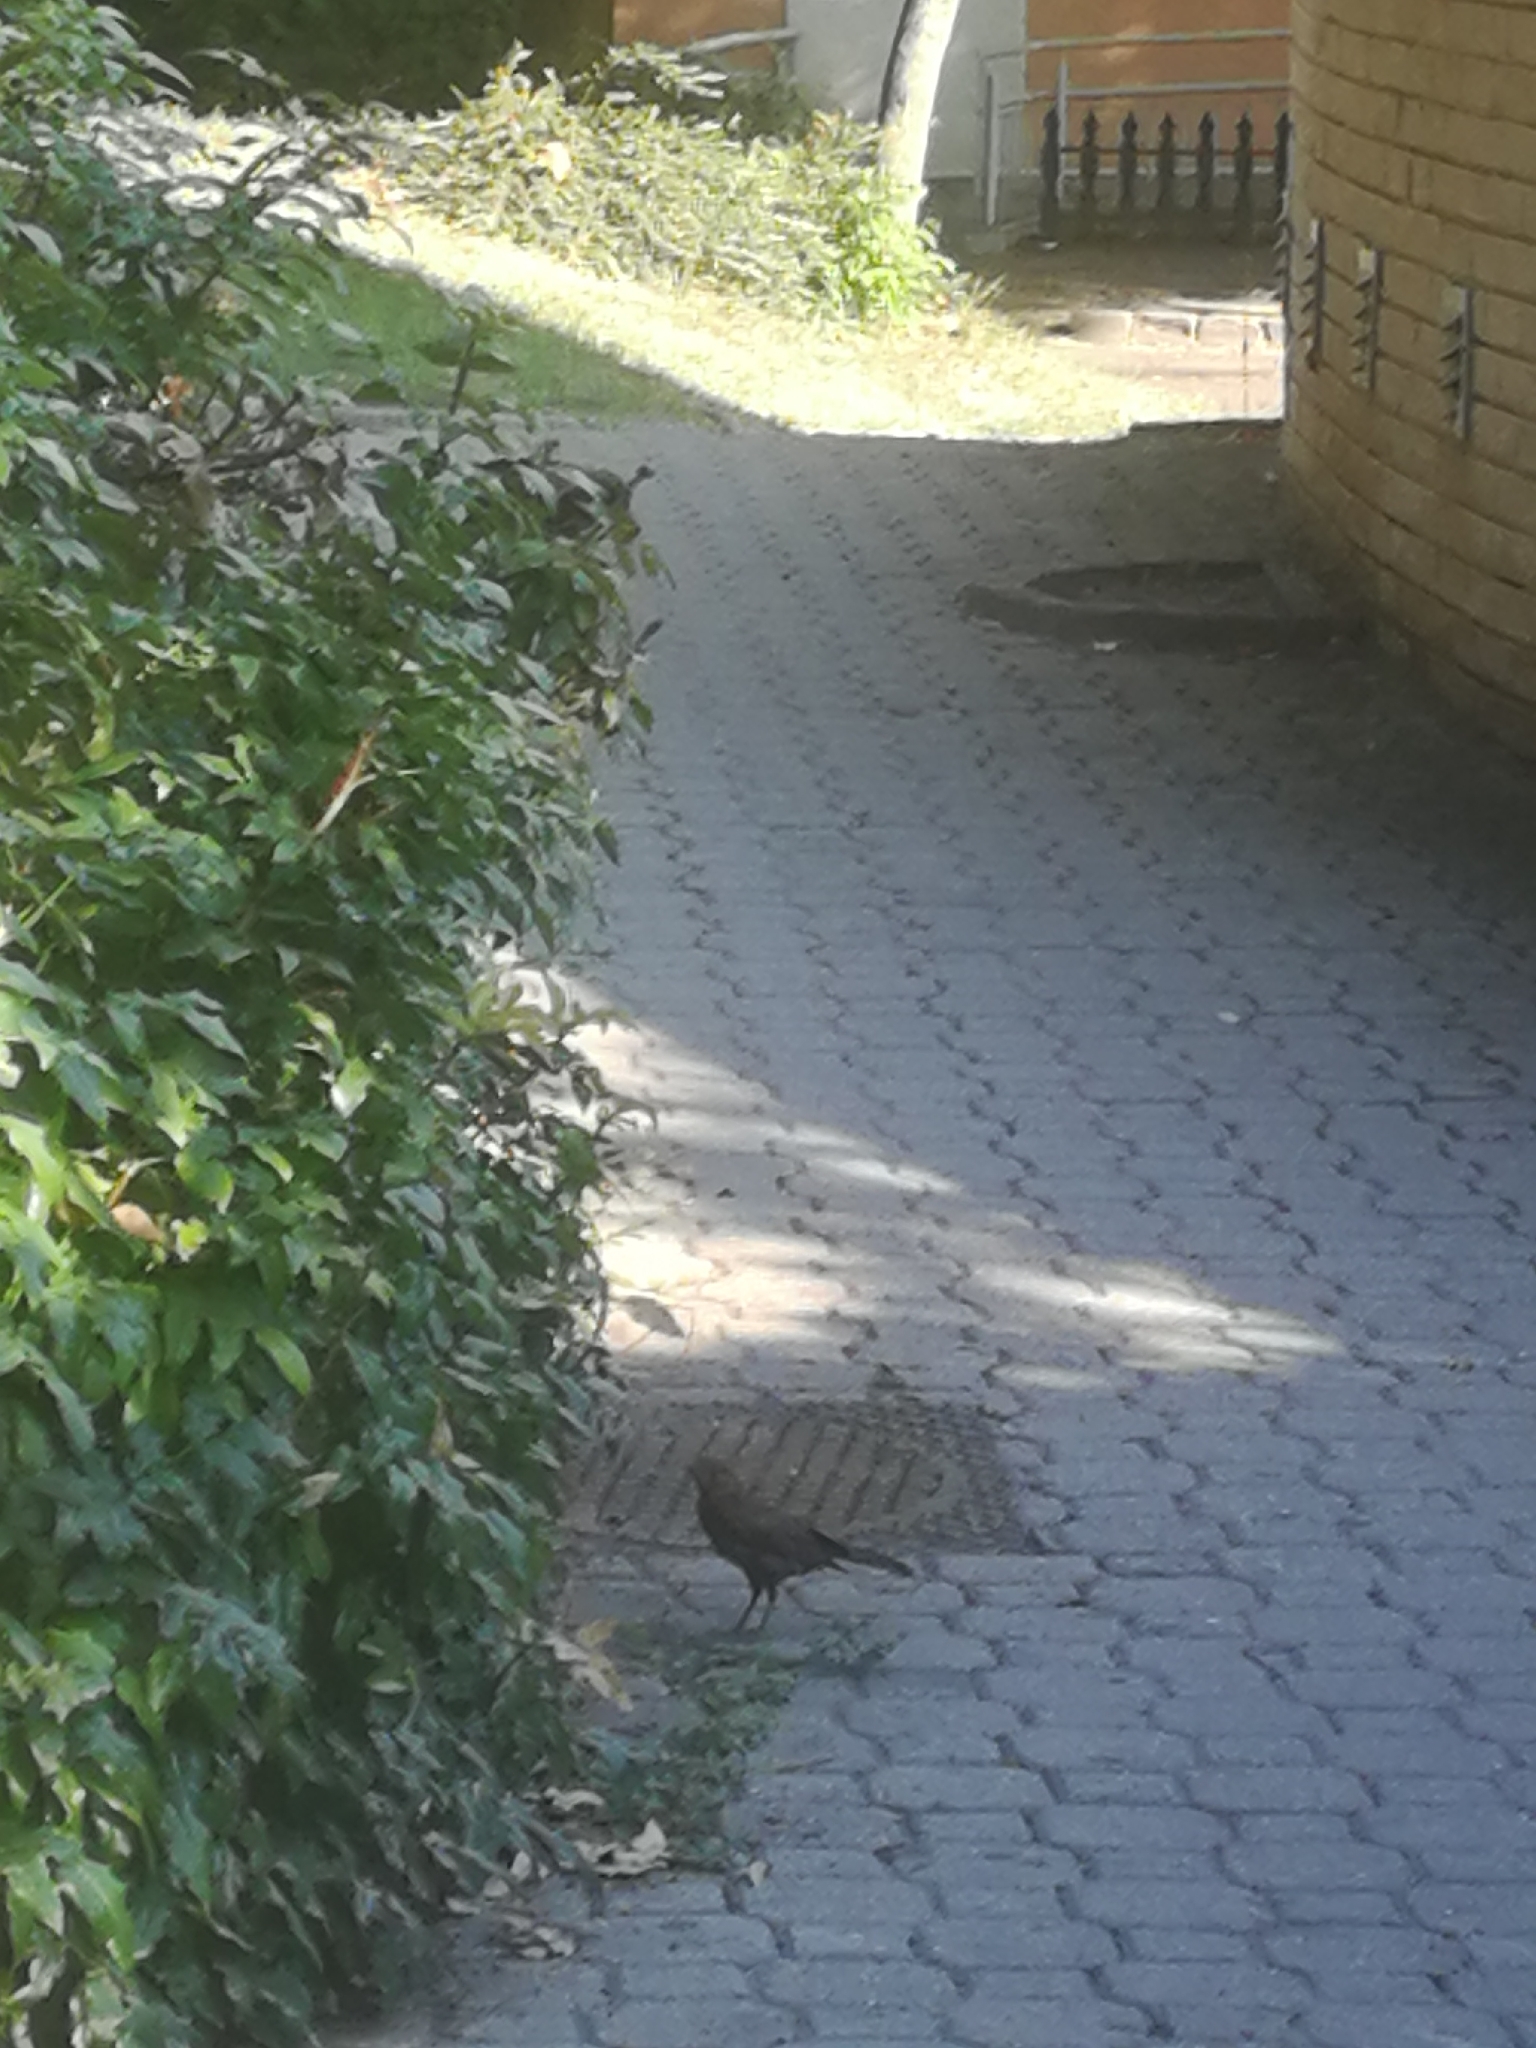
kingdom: Animalia
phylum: Chordata
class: Aves
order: Passeriformes
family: Turdidae
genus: Turdus
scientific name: Turdus merula
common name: Common blackbird
